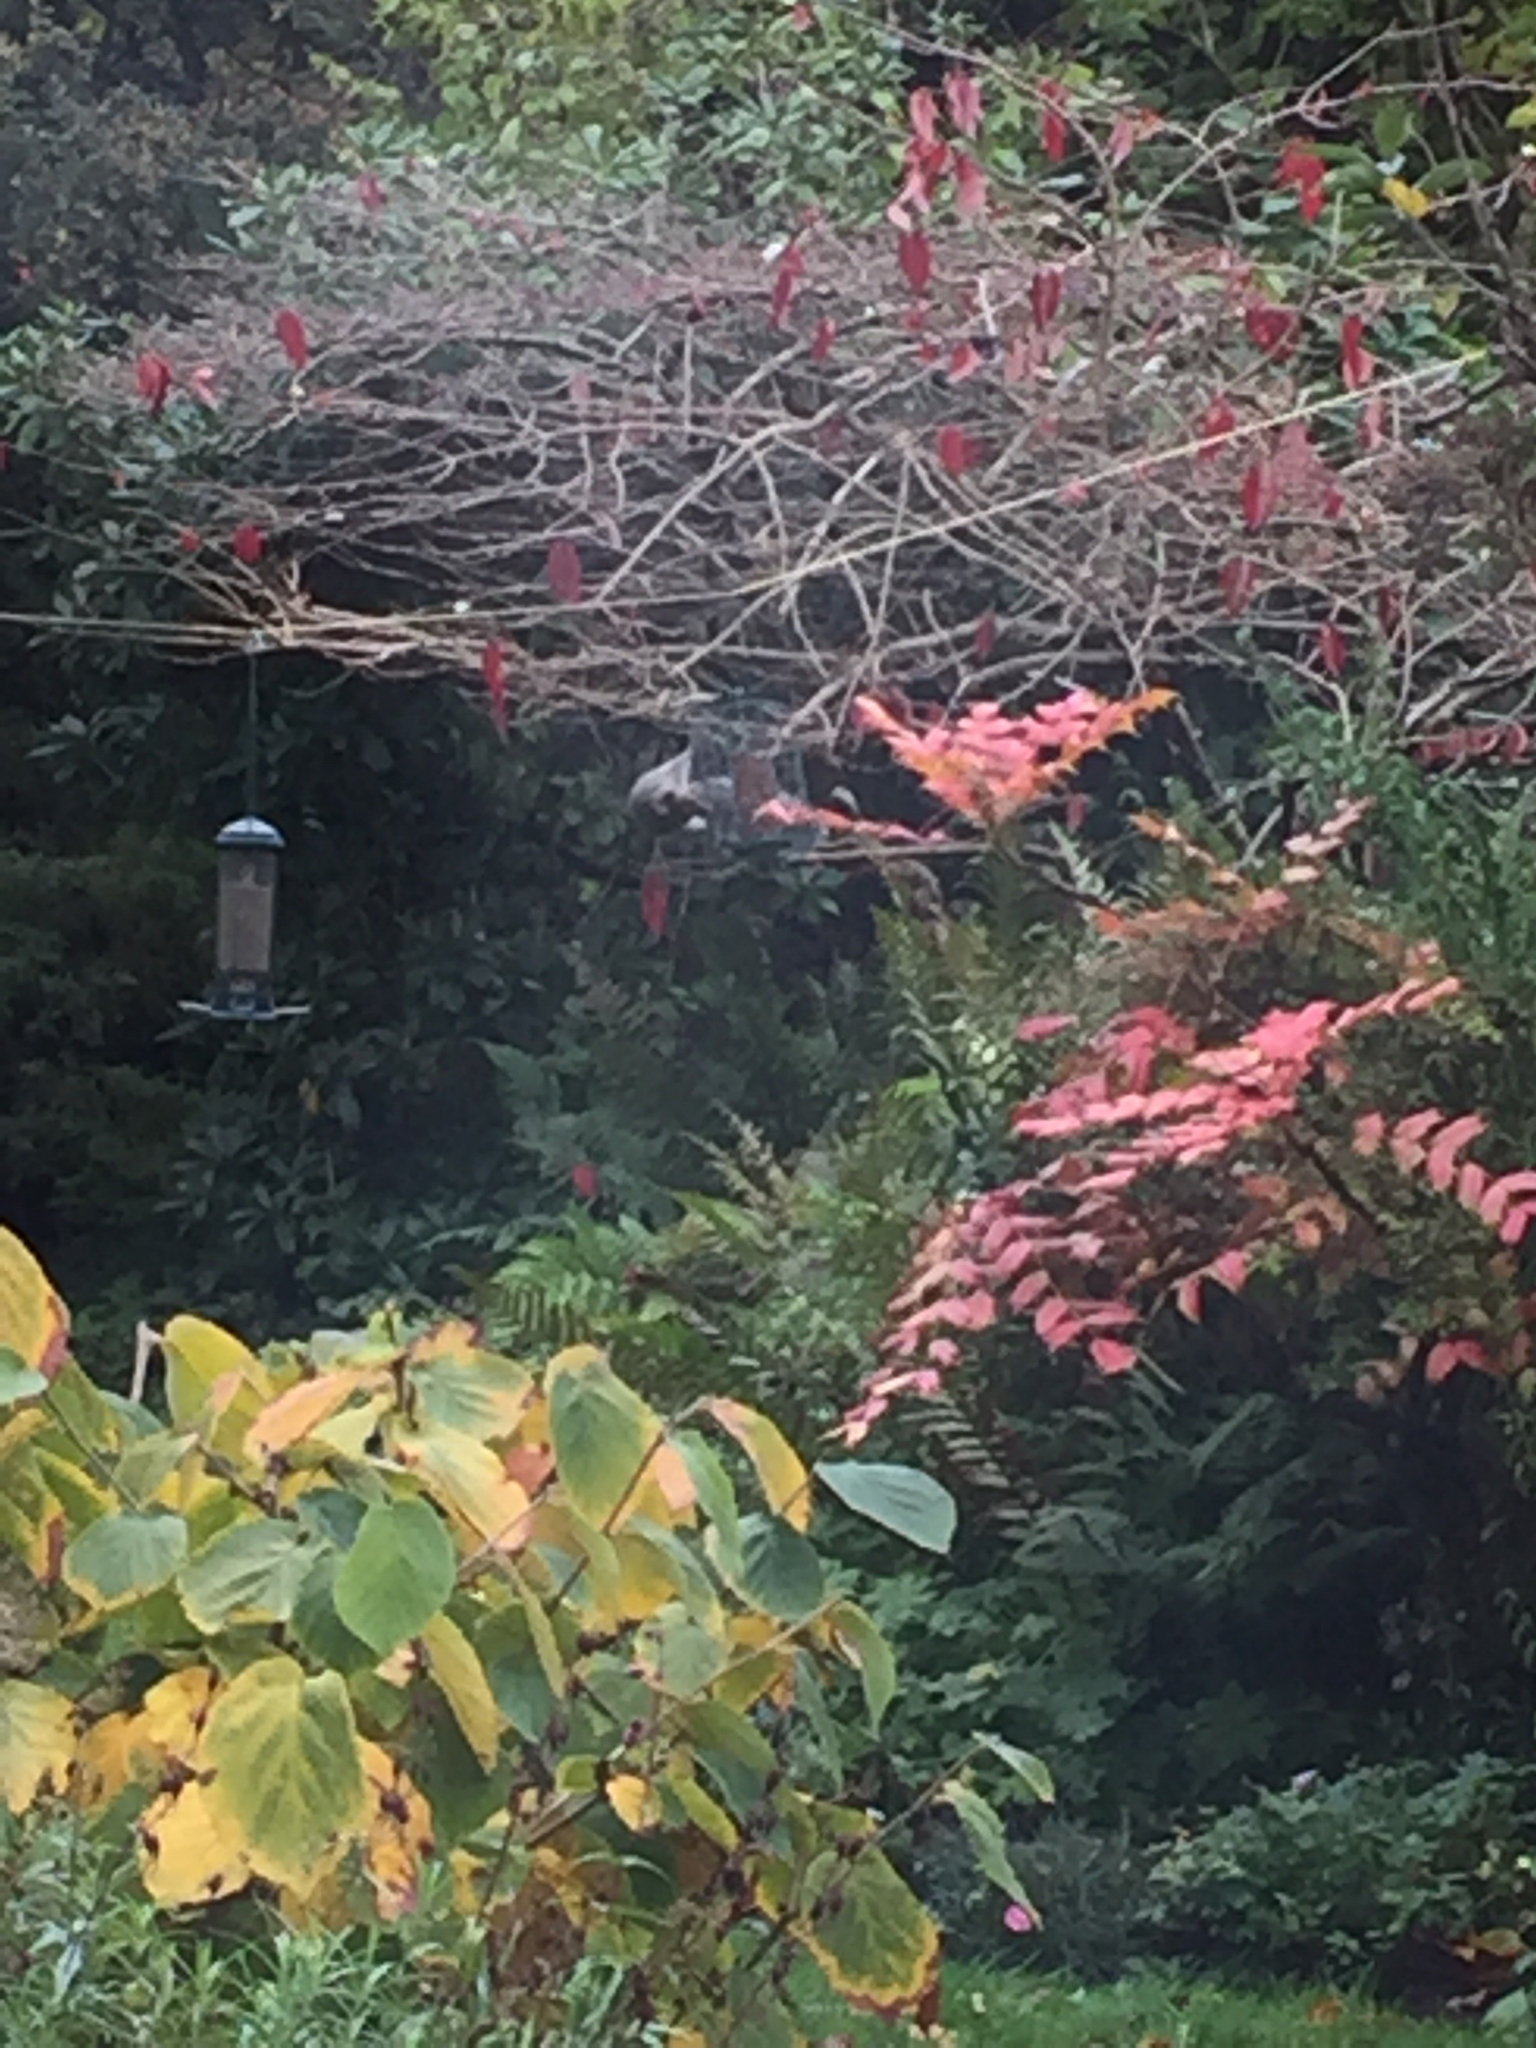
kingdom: Animalia
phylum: Chordata
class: Mammalia
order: Rodentia
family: Sciuridae
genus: Sciurus
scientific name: Sciurus carolinensis
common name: Eastern gray squirrel
